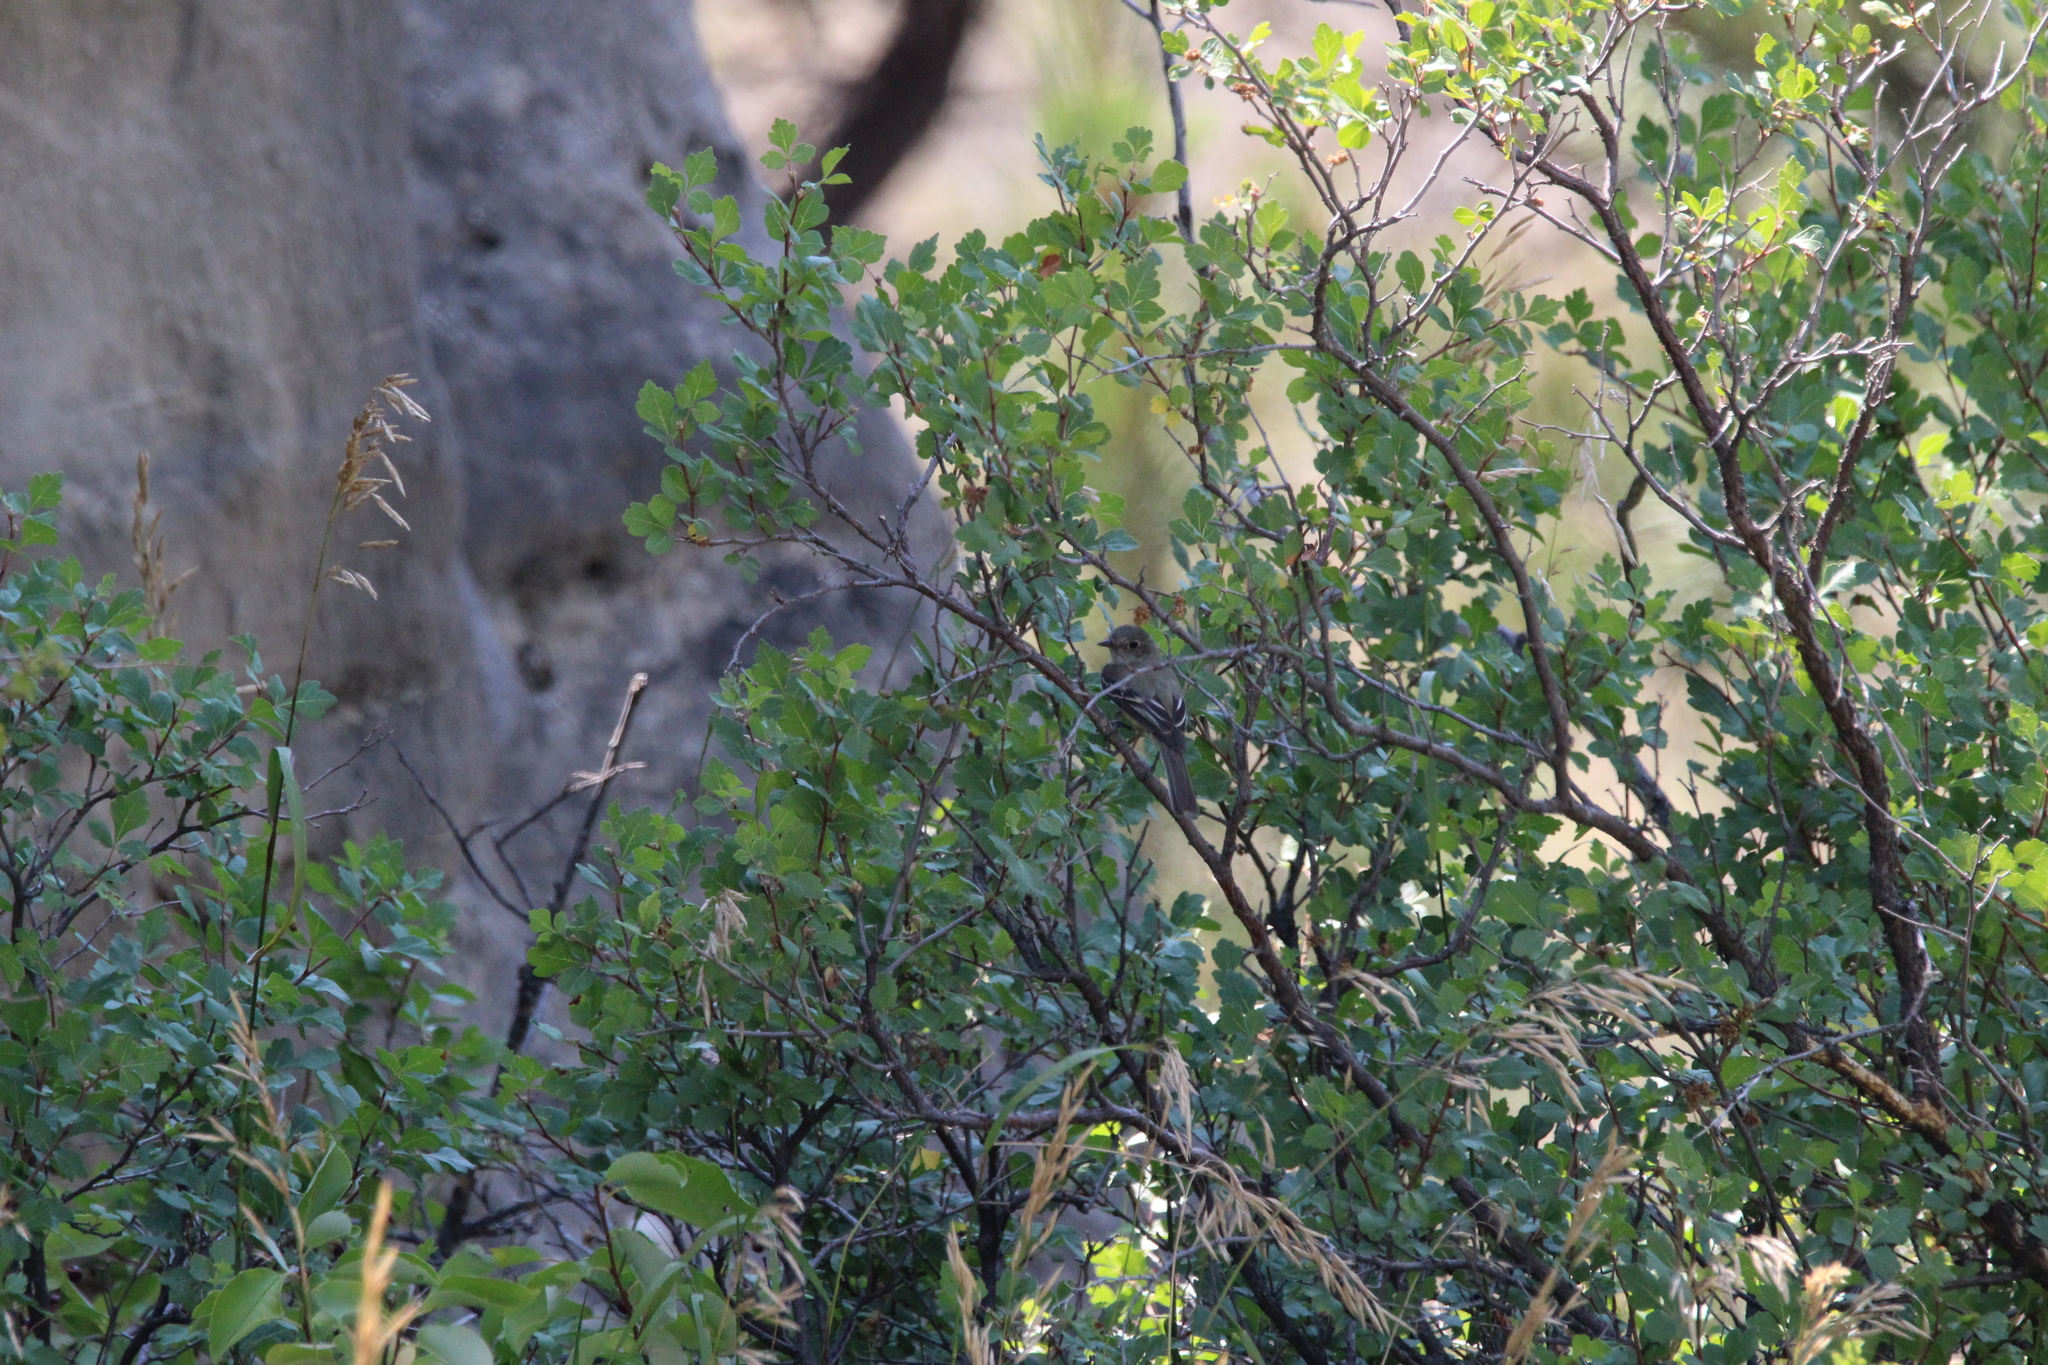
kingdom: Animalia
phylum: Chordata
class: Aves
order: Passeriformes
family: Tyrannidae
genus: Empidonax
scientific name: Empidonax minimus
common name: Least flycatcher
